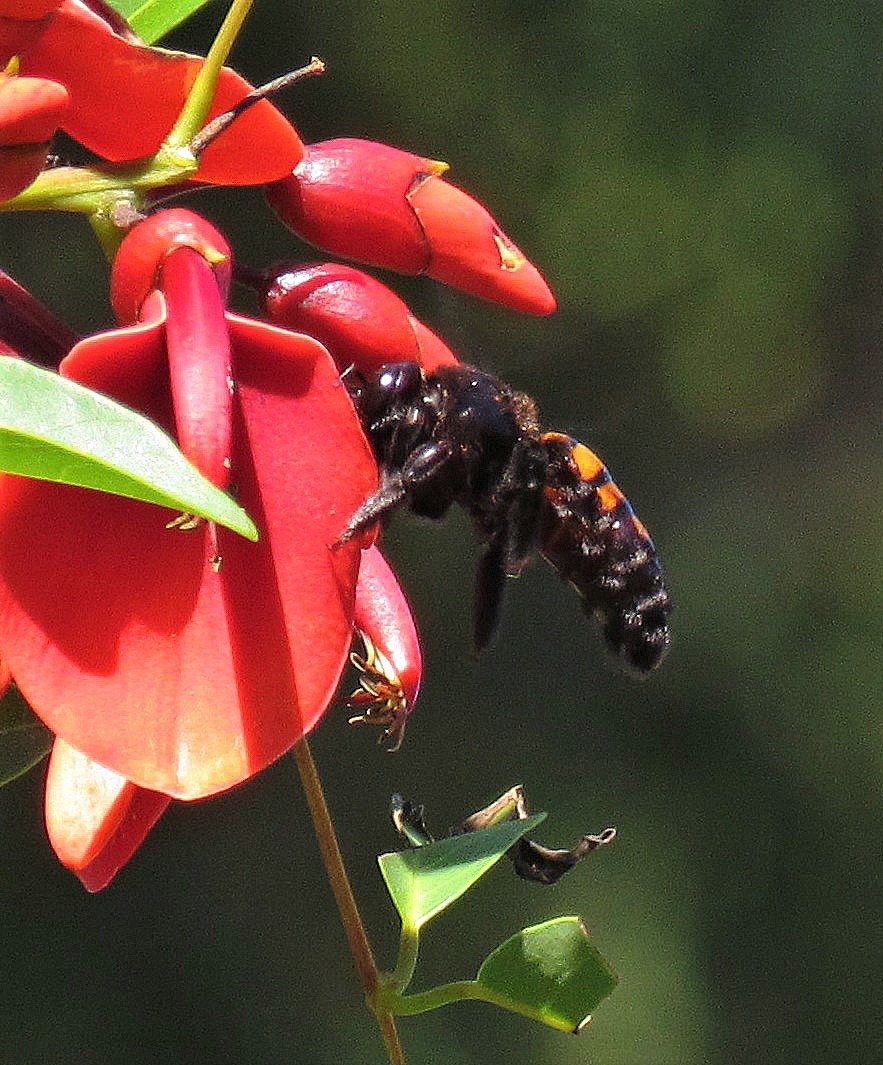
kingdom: Animalia
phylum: Arthropoda
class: Insecta
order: Hymenoptera
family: Apidae
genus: Xylocopa
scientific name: Xylocopa frontalis
